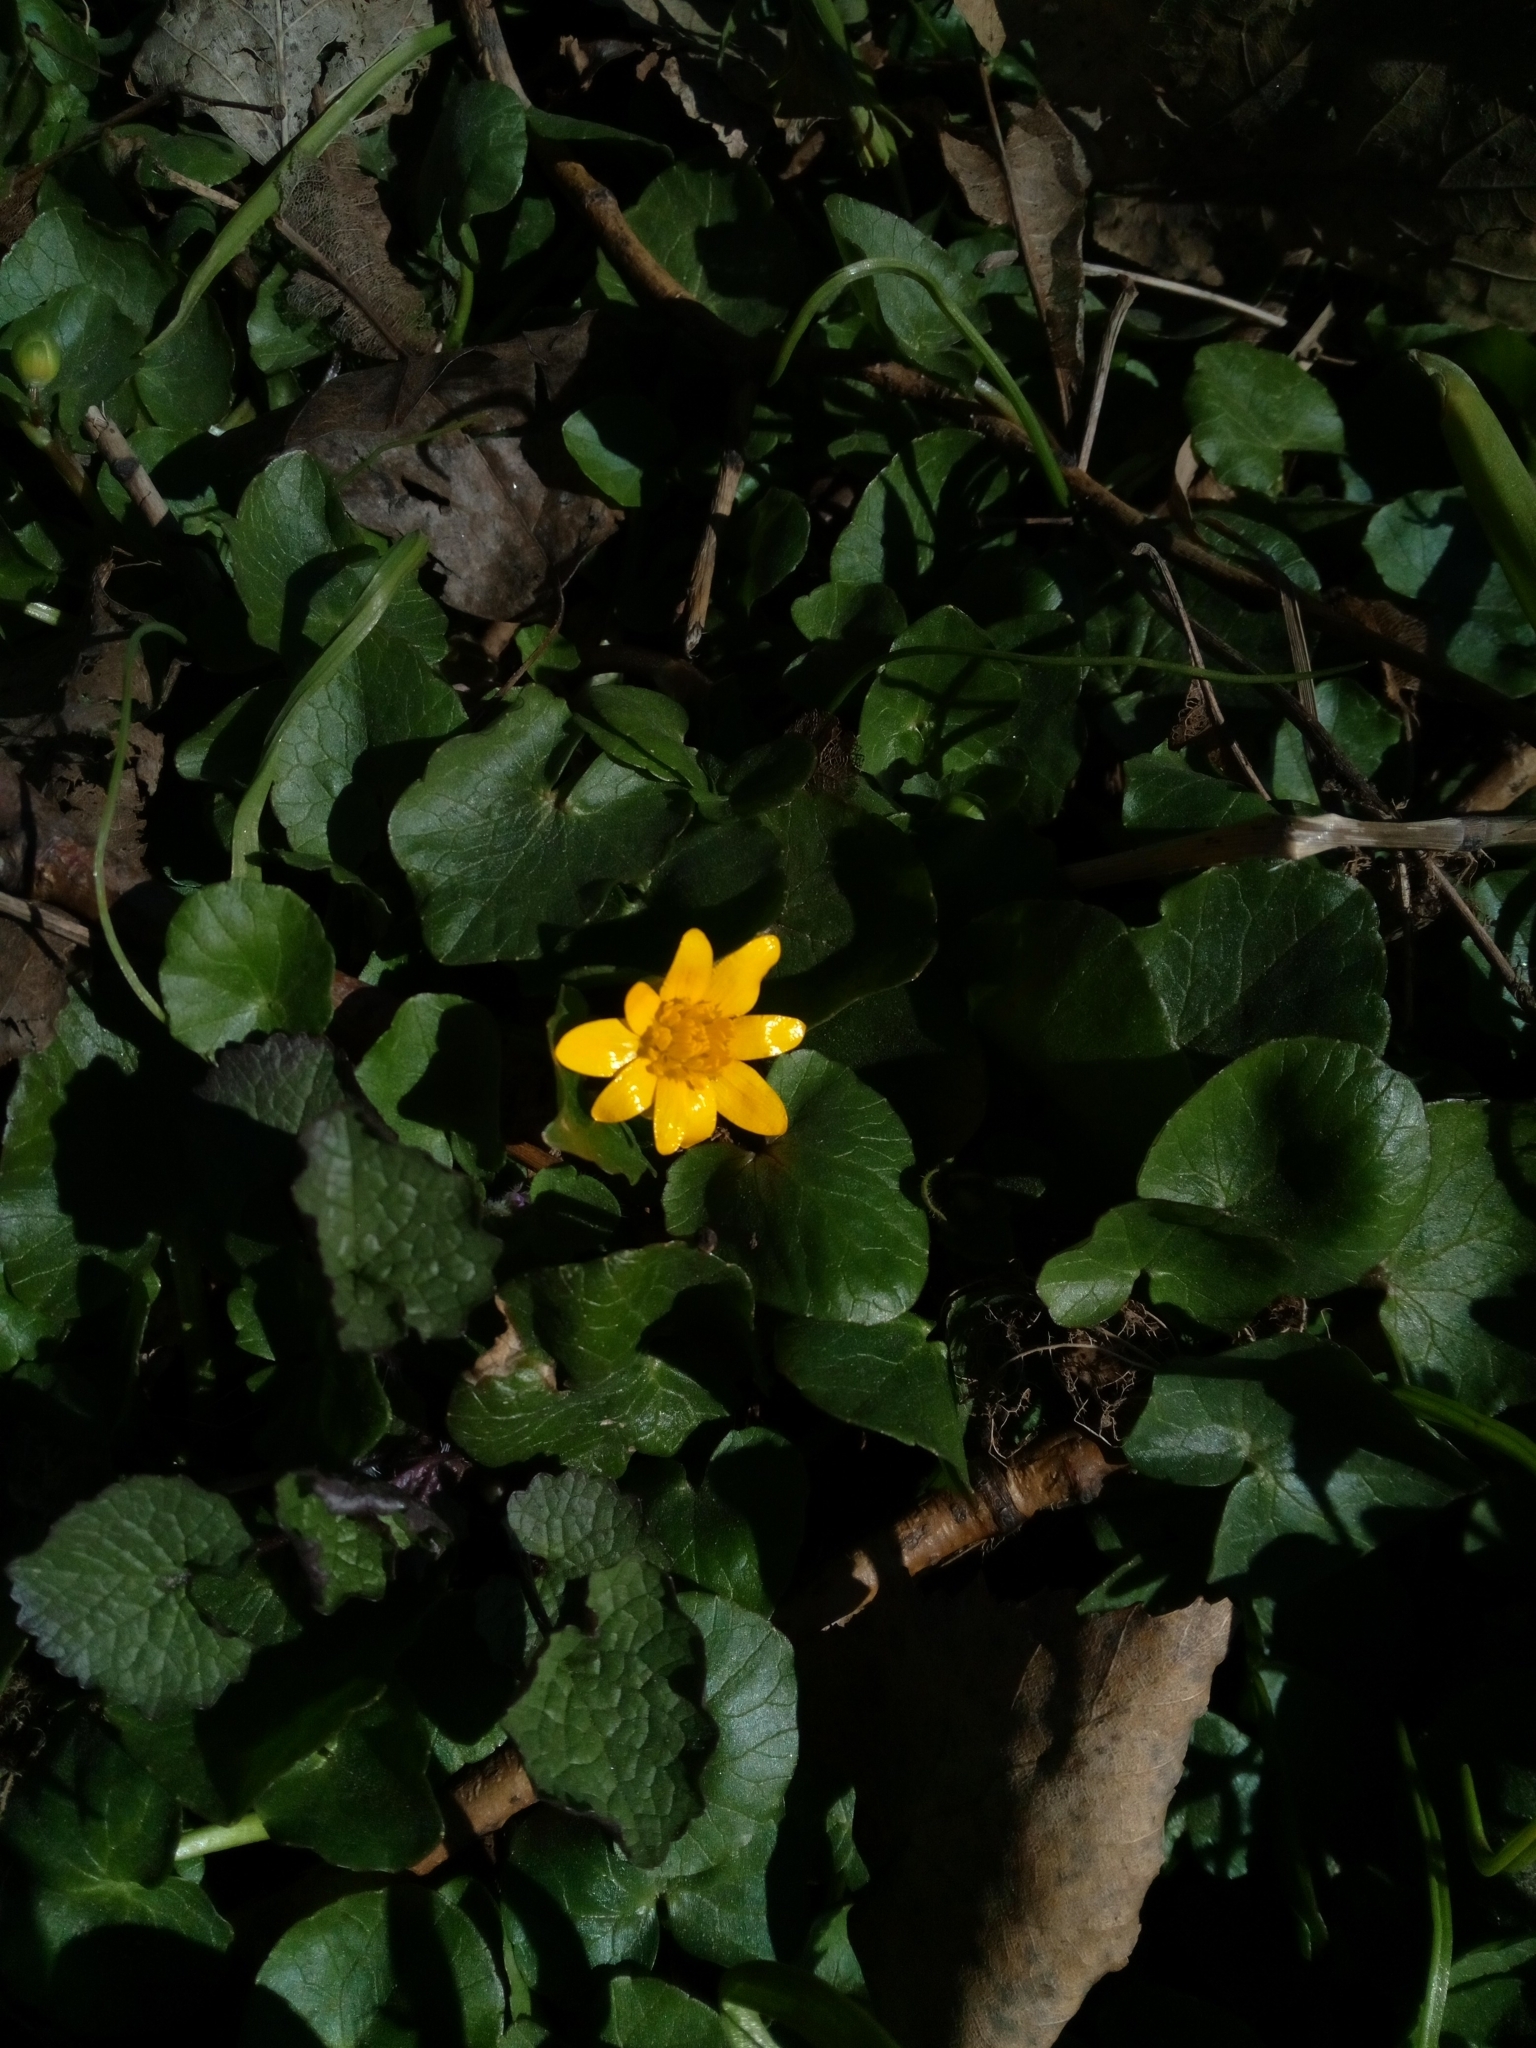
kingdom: Plantae
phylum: Tracheophyta
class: Magnoliopsida
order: Ranunculales
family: Ranunculaceae
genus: Ficaria
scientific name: Ficaria verna
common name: Lesser celandine
